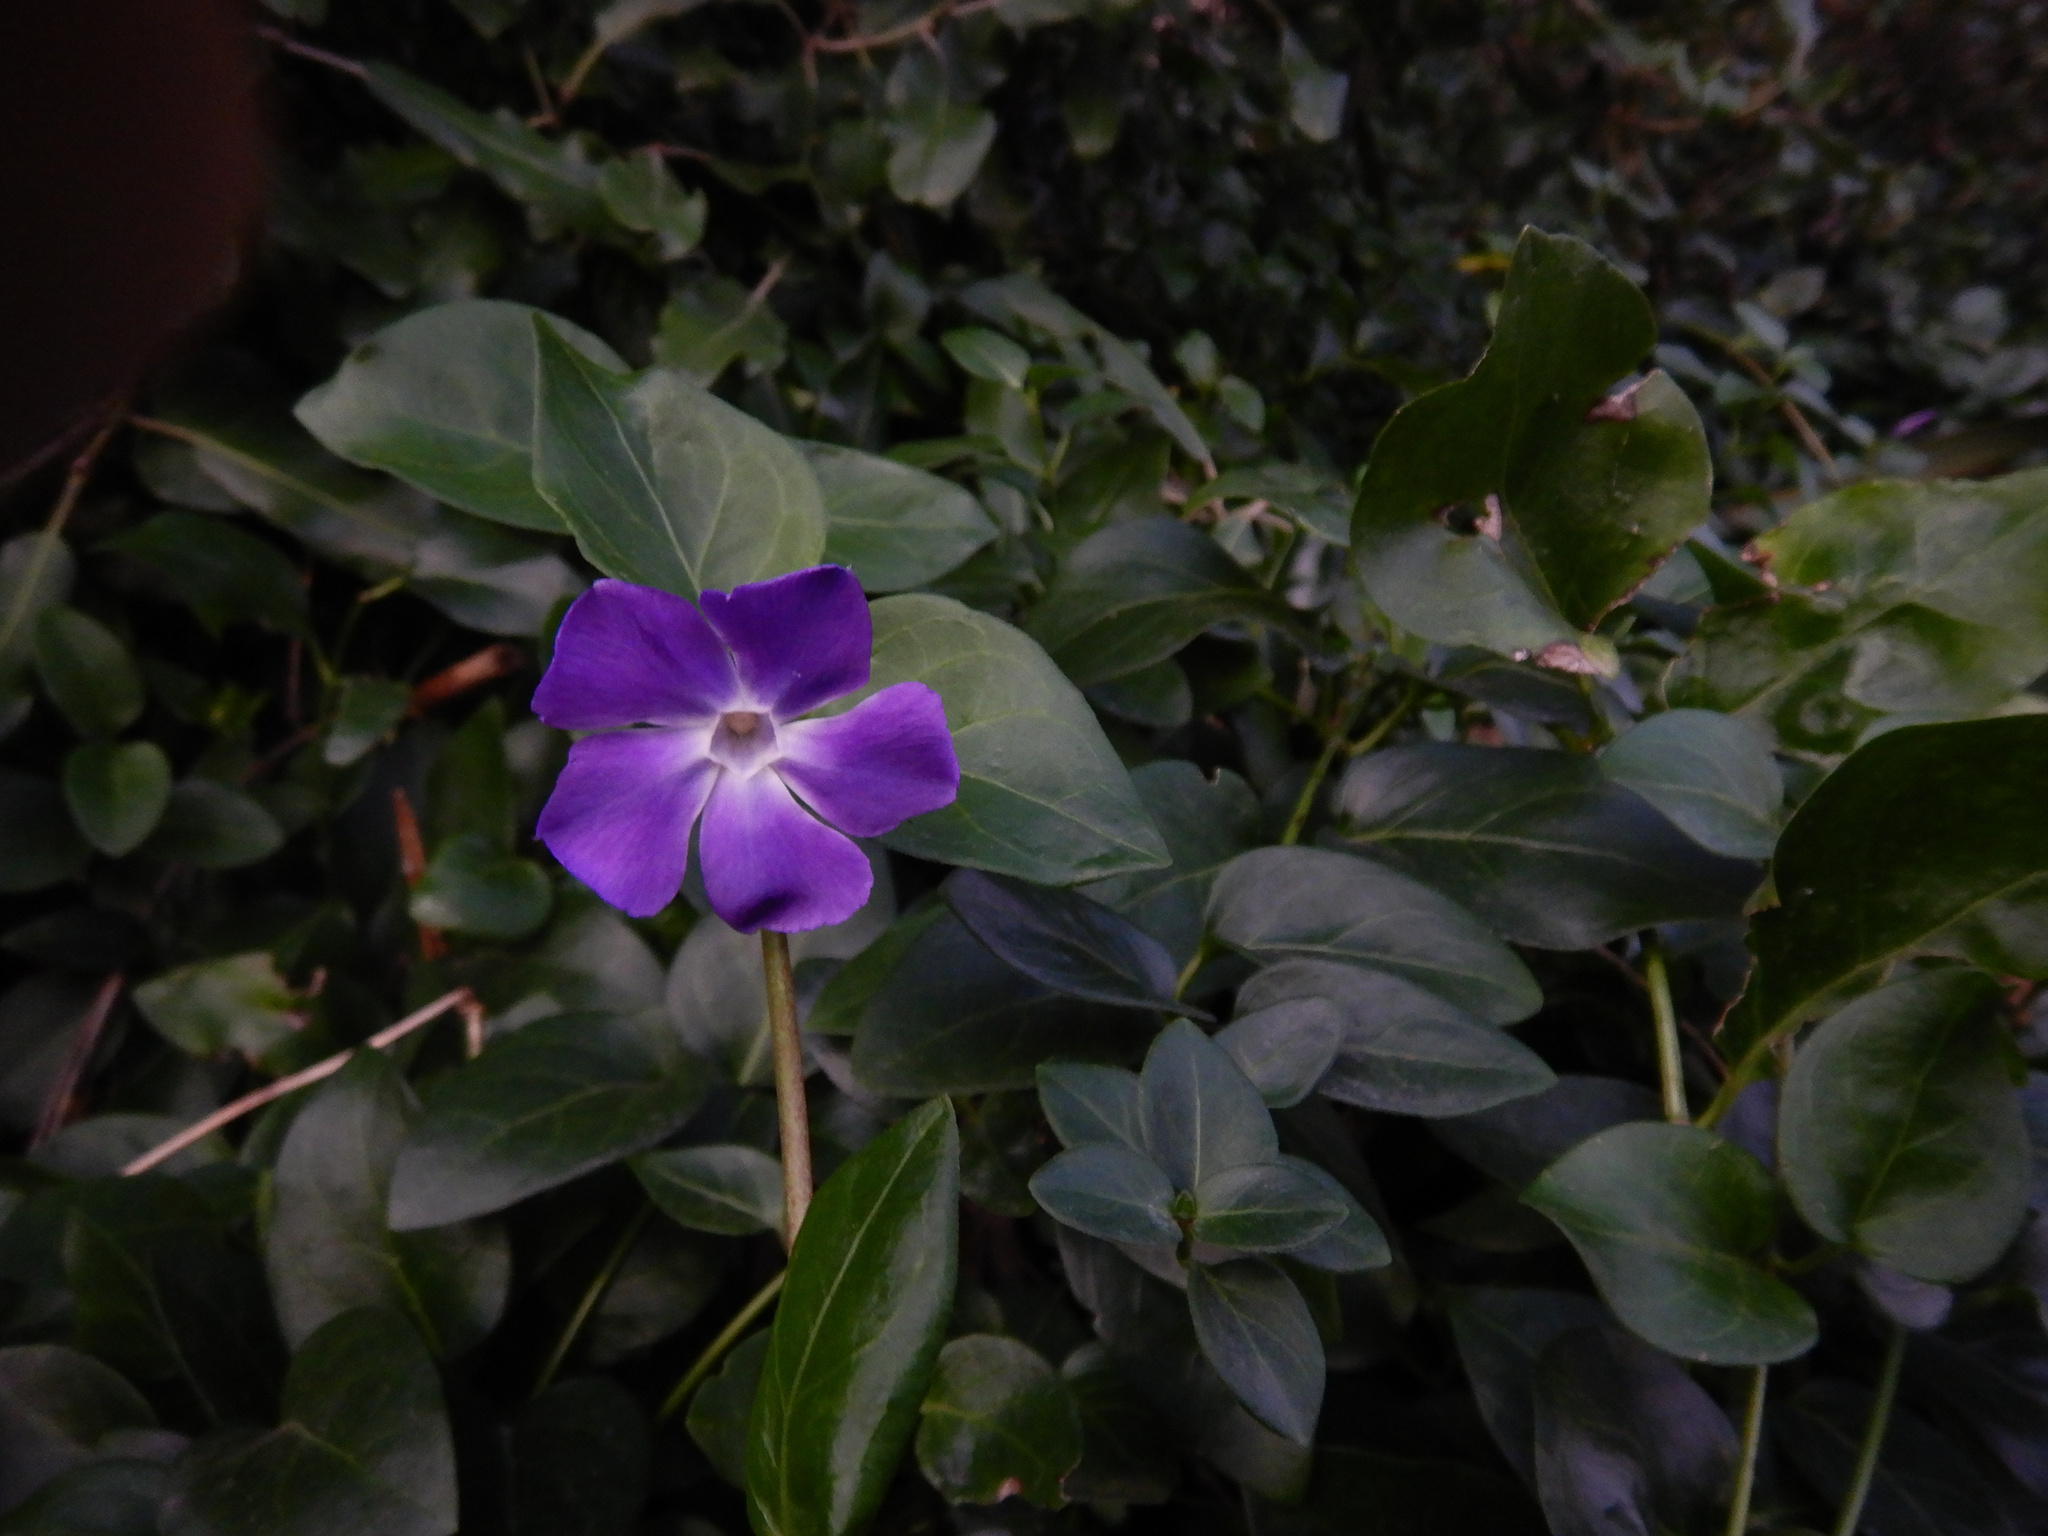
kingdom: Plantae
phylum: Tracheophyta
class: Magnoliopsida
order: Gentianales
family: Apocynaceae
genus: Vinca
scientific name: Vinca major
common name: Greater periwinkle
